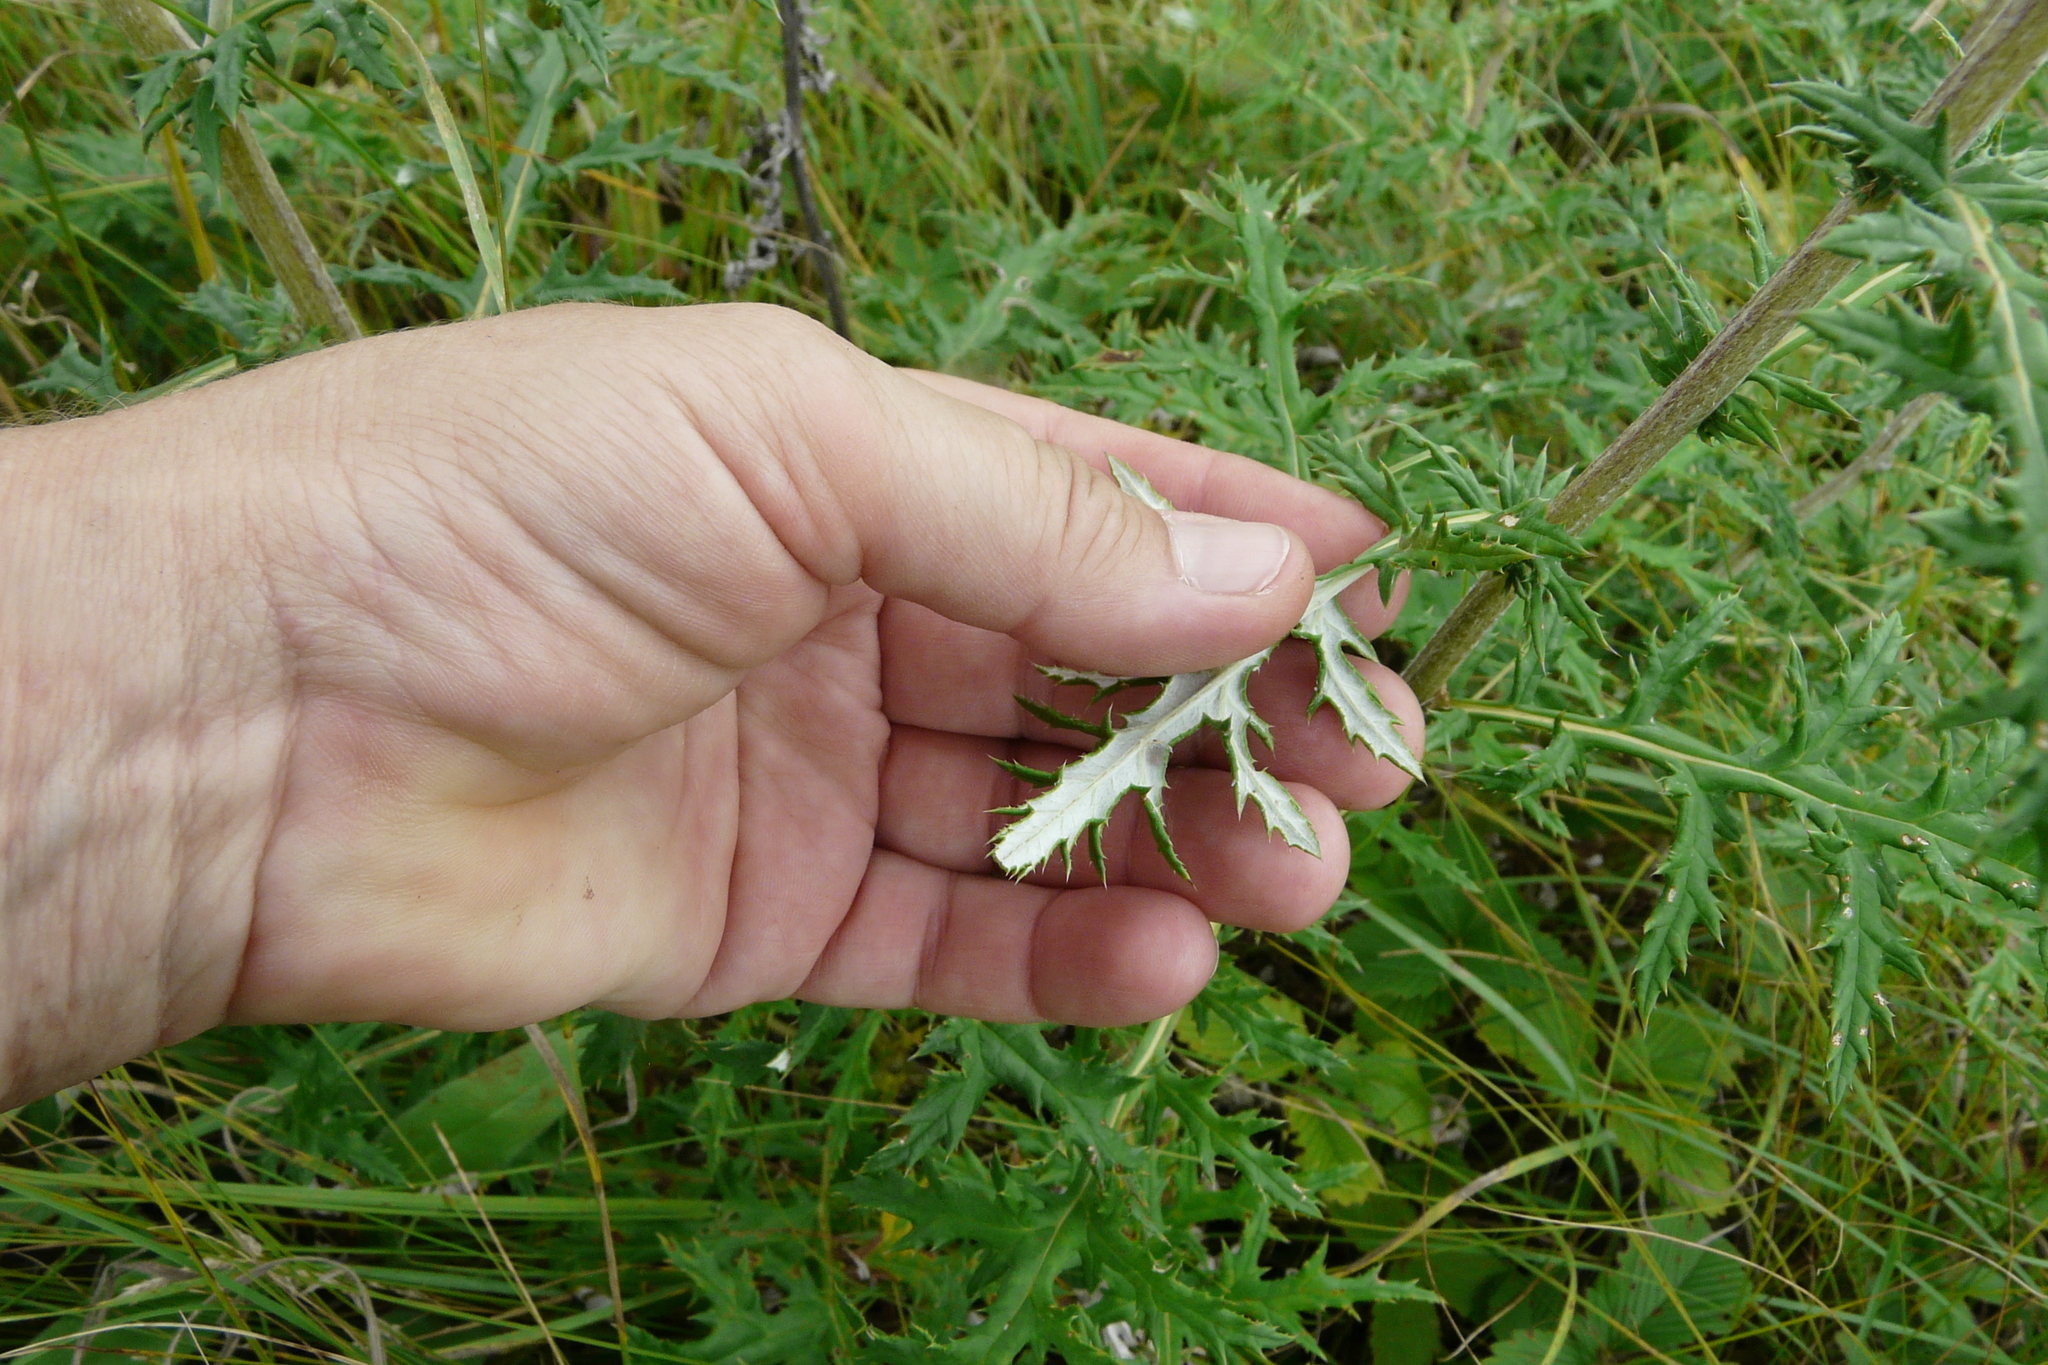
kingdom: Plantae
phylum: Tracheophyta
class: Magnoliopsida
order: Asterales
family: Asteraceae
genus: Echinops
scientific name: Echinops ritro
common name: Globe thistle
